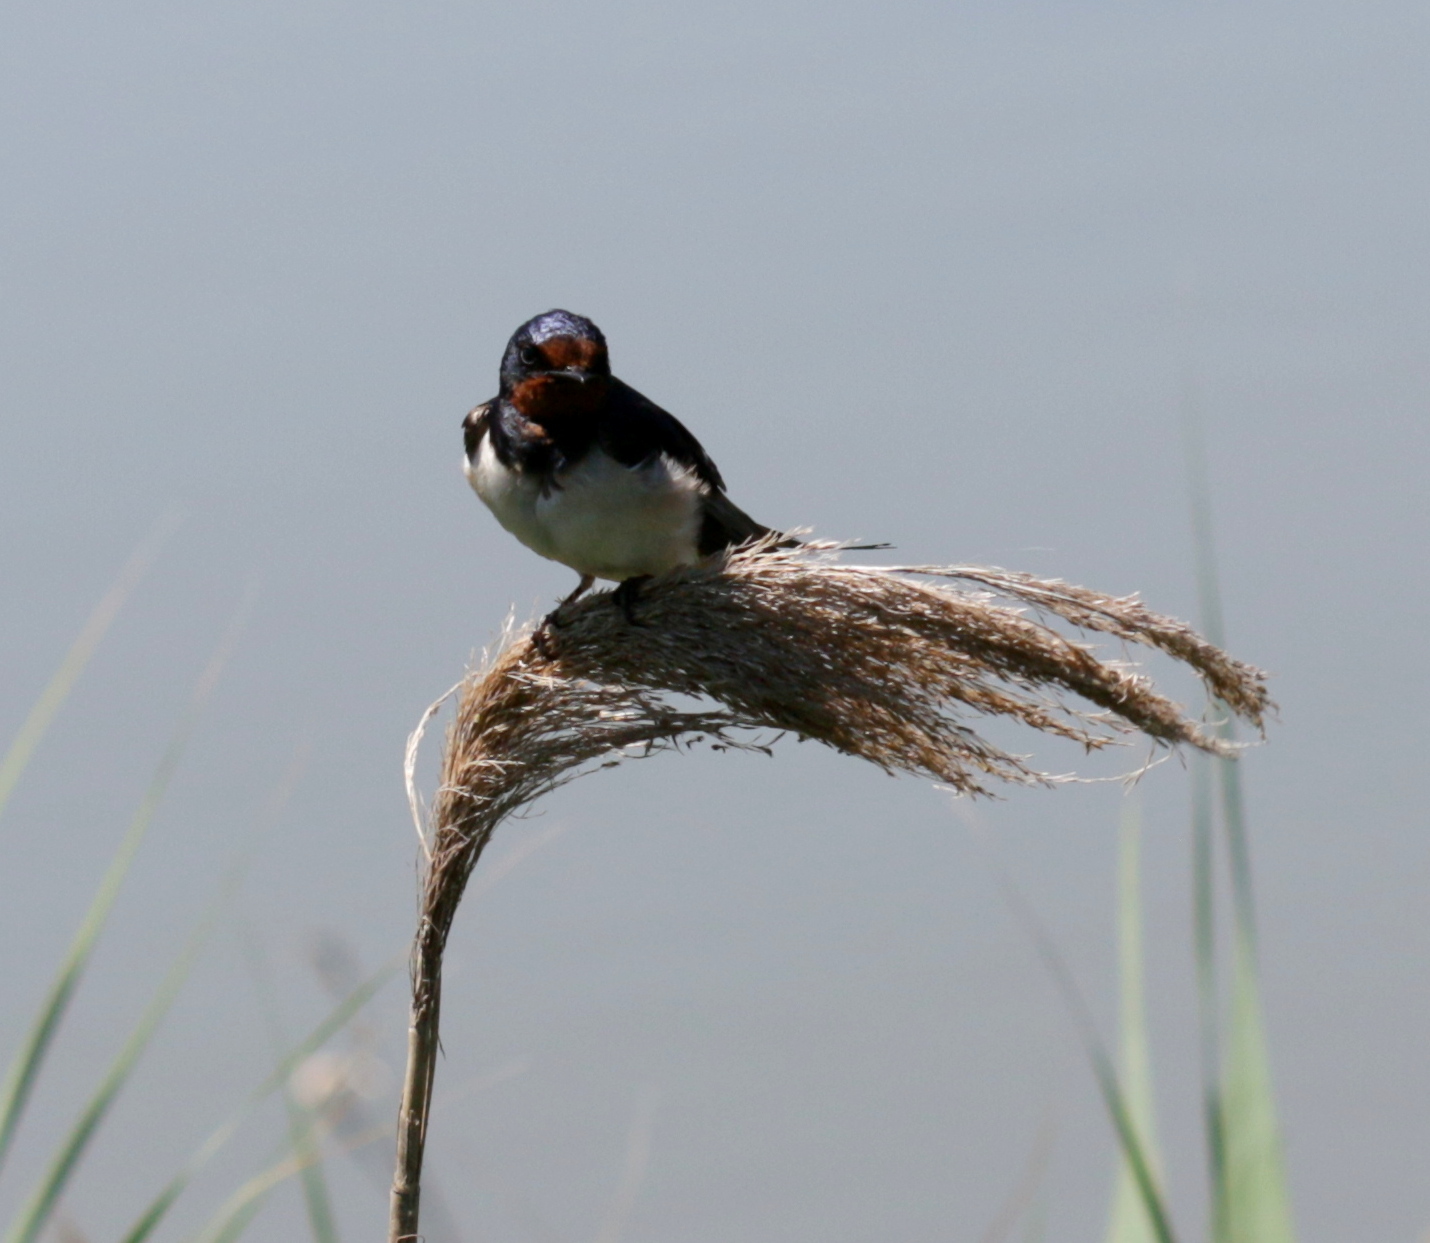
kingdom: Animalia
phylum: Chordata
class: Aves
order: Passeriformes
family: Hirundinidae
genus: Hirundo
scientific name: Hirundo rustica
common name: Barn swallow
